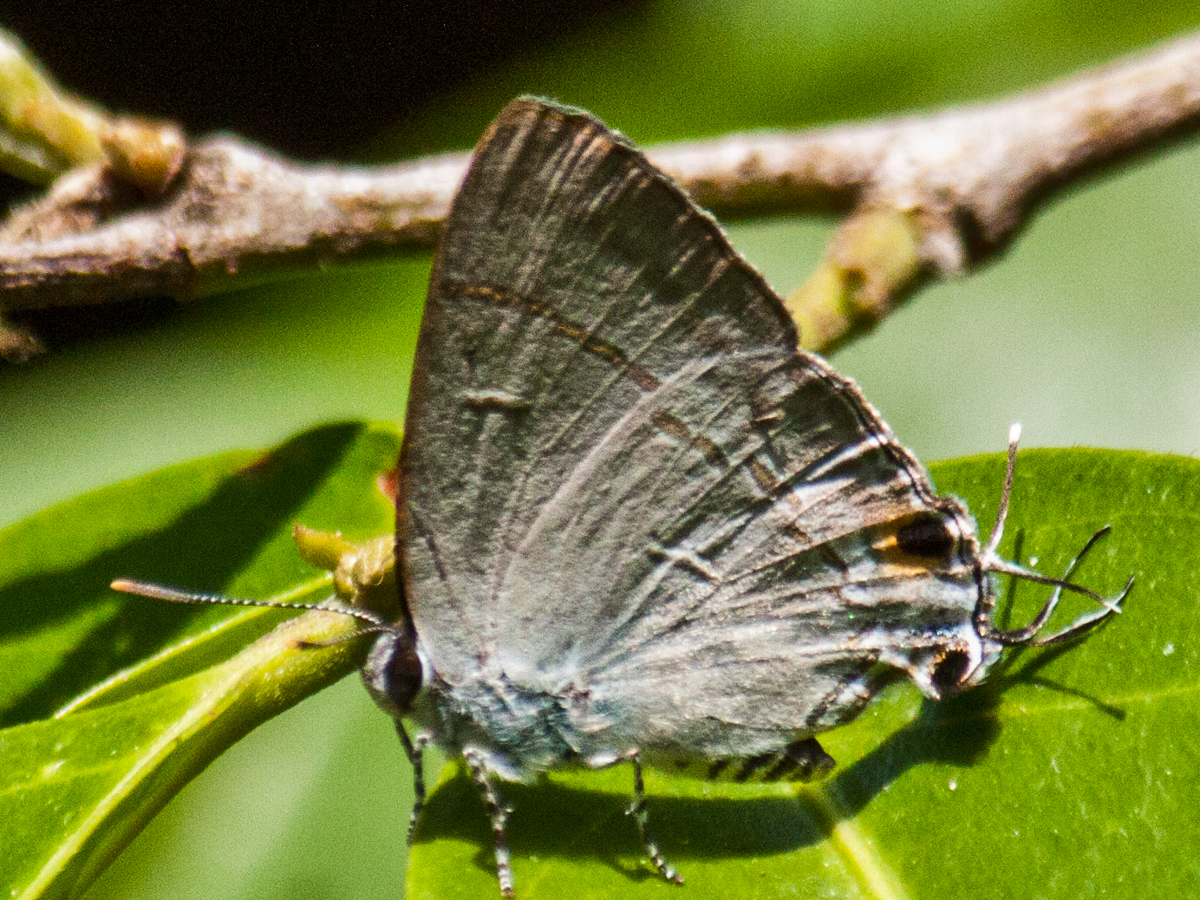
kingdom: Animalia
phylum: Arthropoda
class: Insecta
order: Lepidoptera
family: Lycaenidae
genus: Hypolycaena
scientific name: Hypolycaena erylus
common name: Common tit
